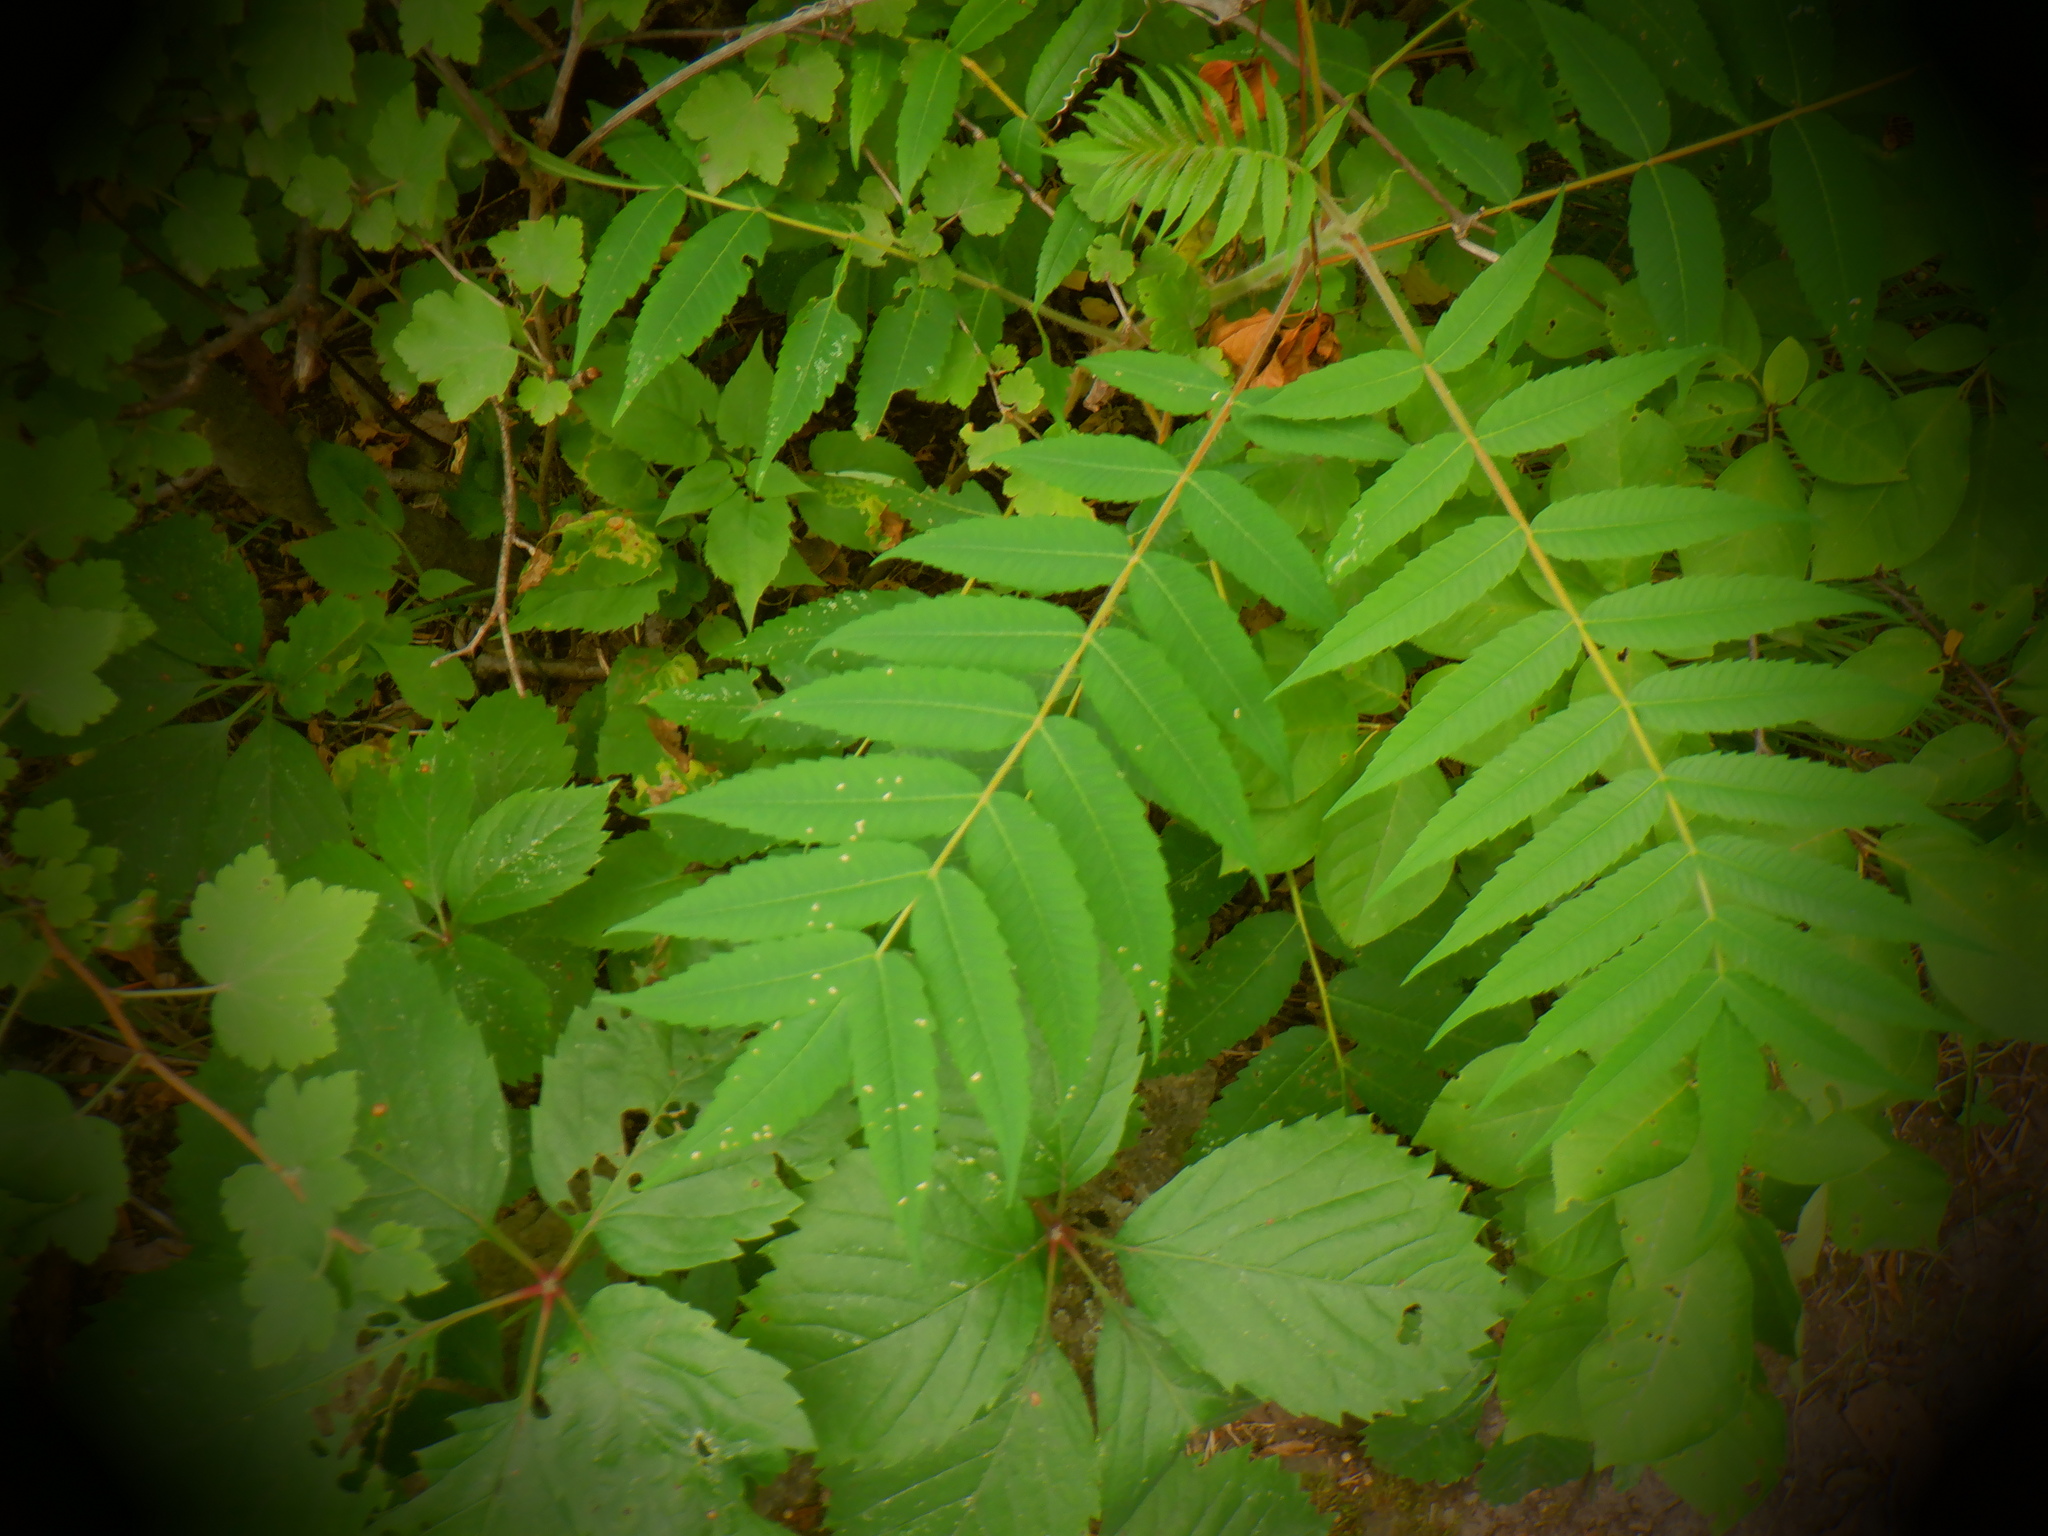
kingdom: Plantae
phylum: Tracheophyta
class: Magnoliopsida
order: Sapindales
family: Anacardiaceae
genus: Rhus
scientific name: Rhus typhina
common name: Staghorn sumac
